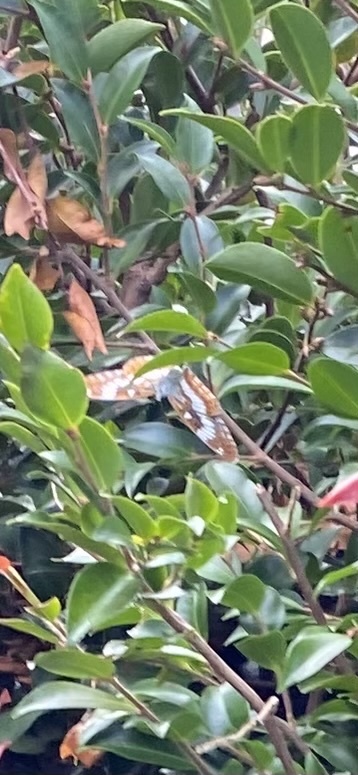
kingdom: Animalia
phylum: Arthropoda
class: Insecta
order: Lepidoptera
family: Nymphalidae
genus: Ladoga
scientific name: Ladoga camilla
